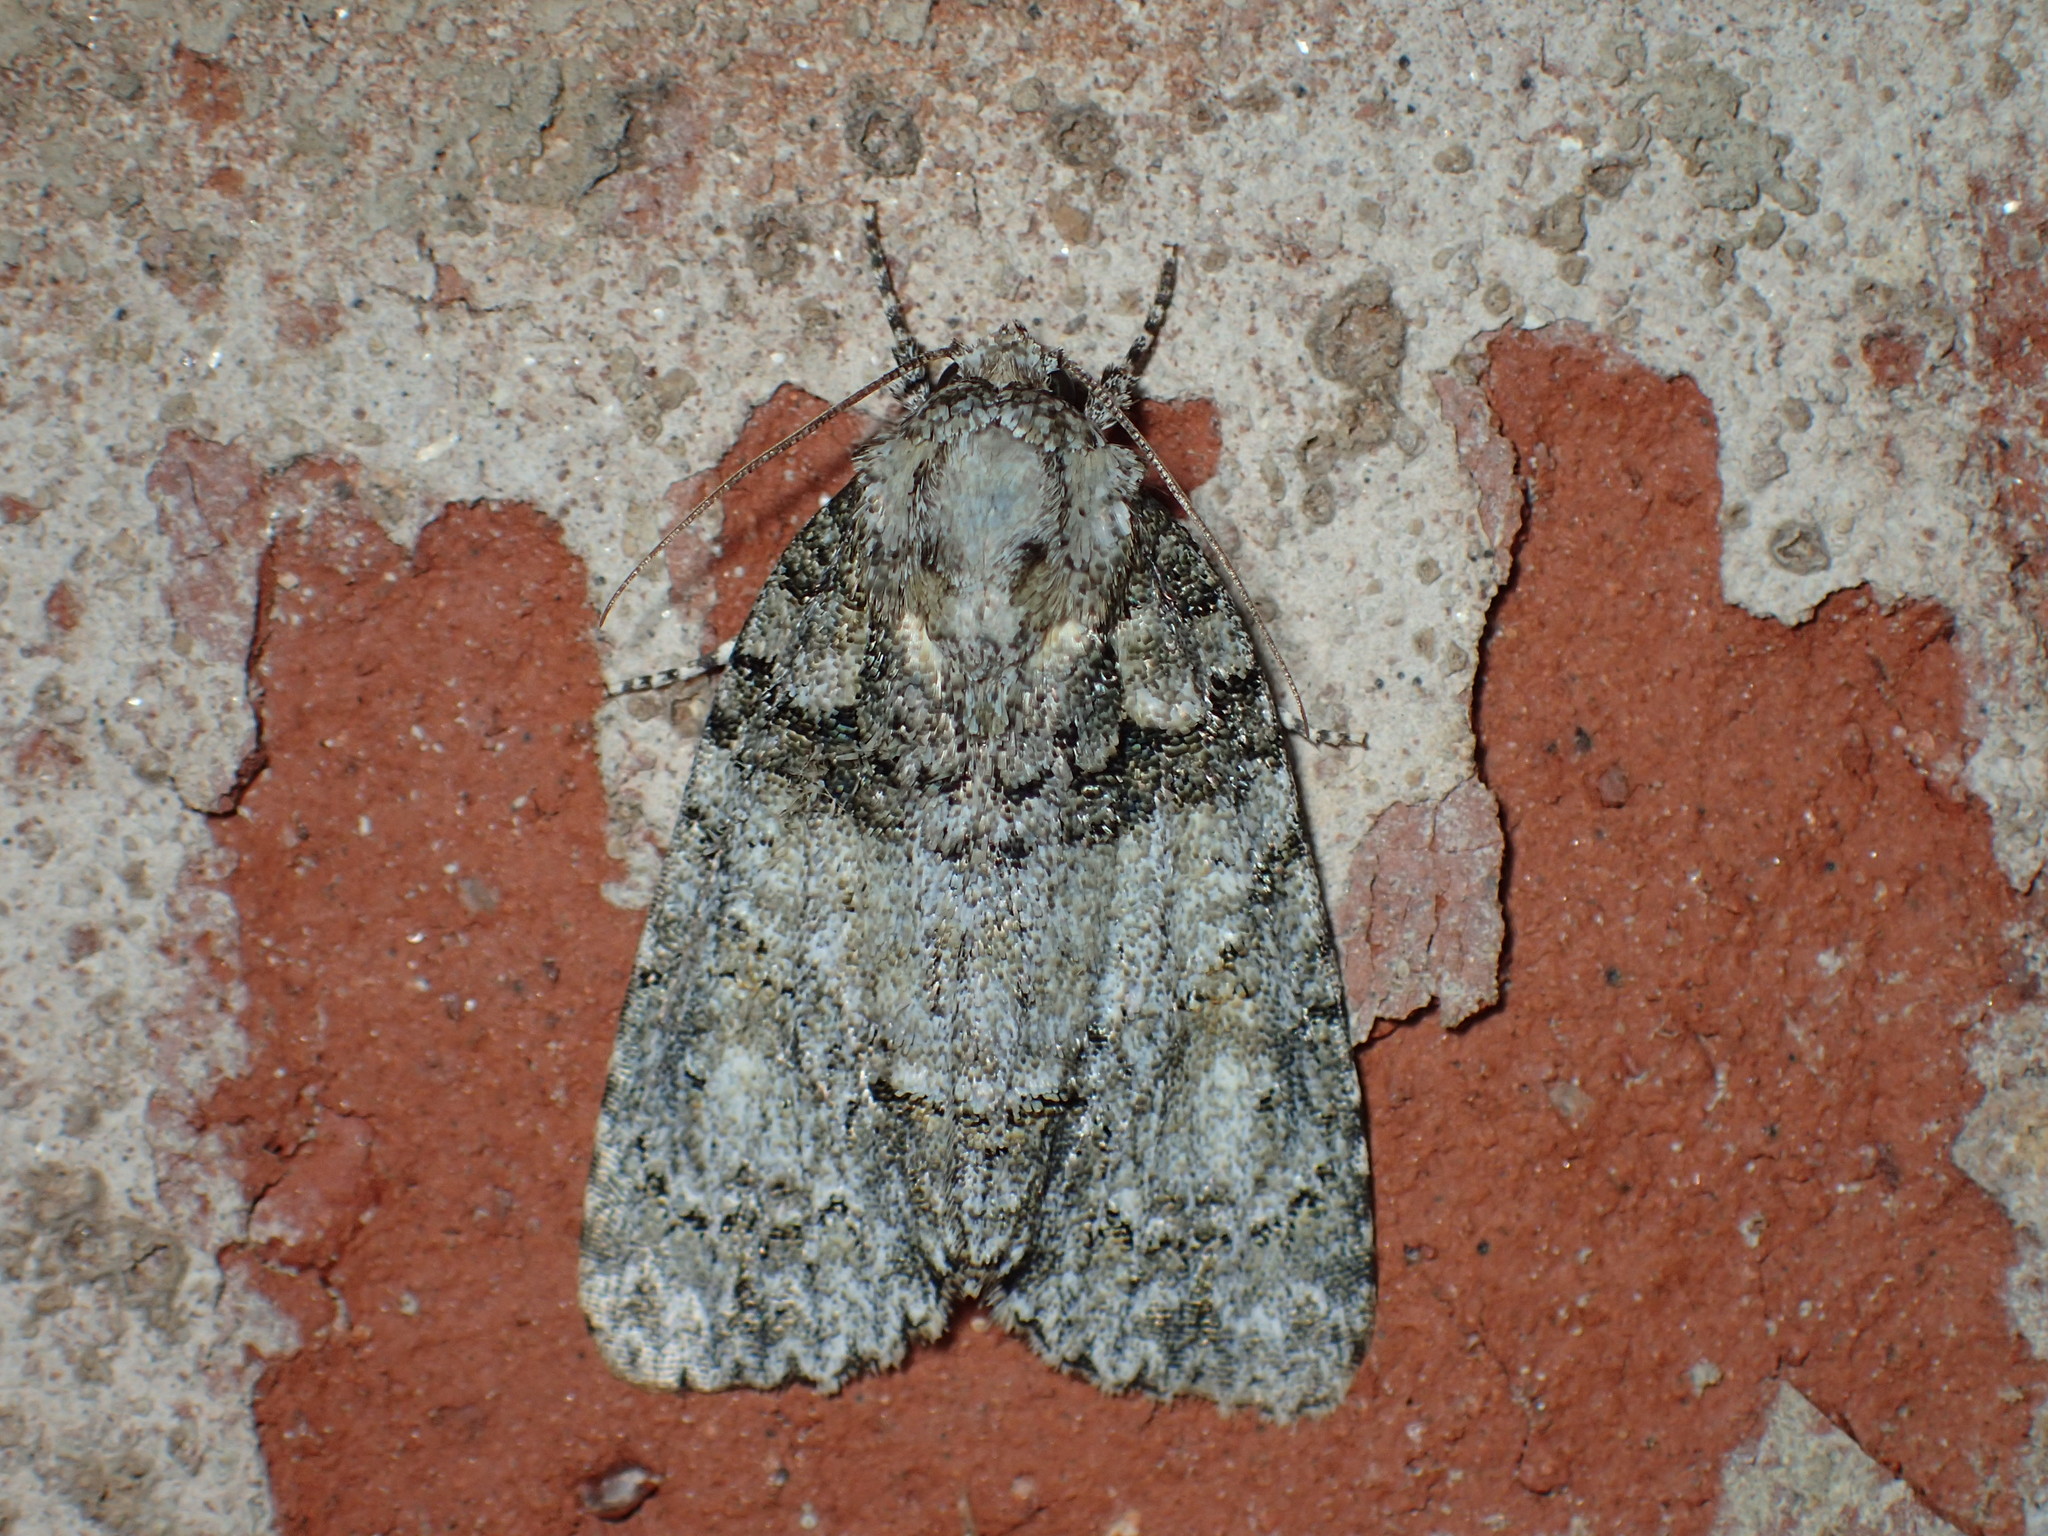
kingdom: Animalia
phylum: Arthropoda
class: Insecta
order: Lepidoptera
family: Noctuidae
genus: Acronicta
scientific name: Acronicta ovata
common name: Epauleted oak dagger
